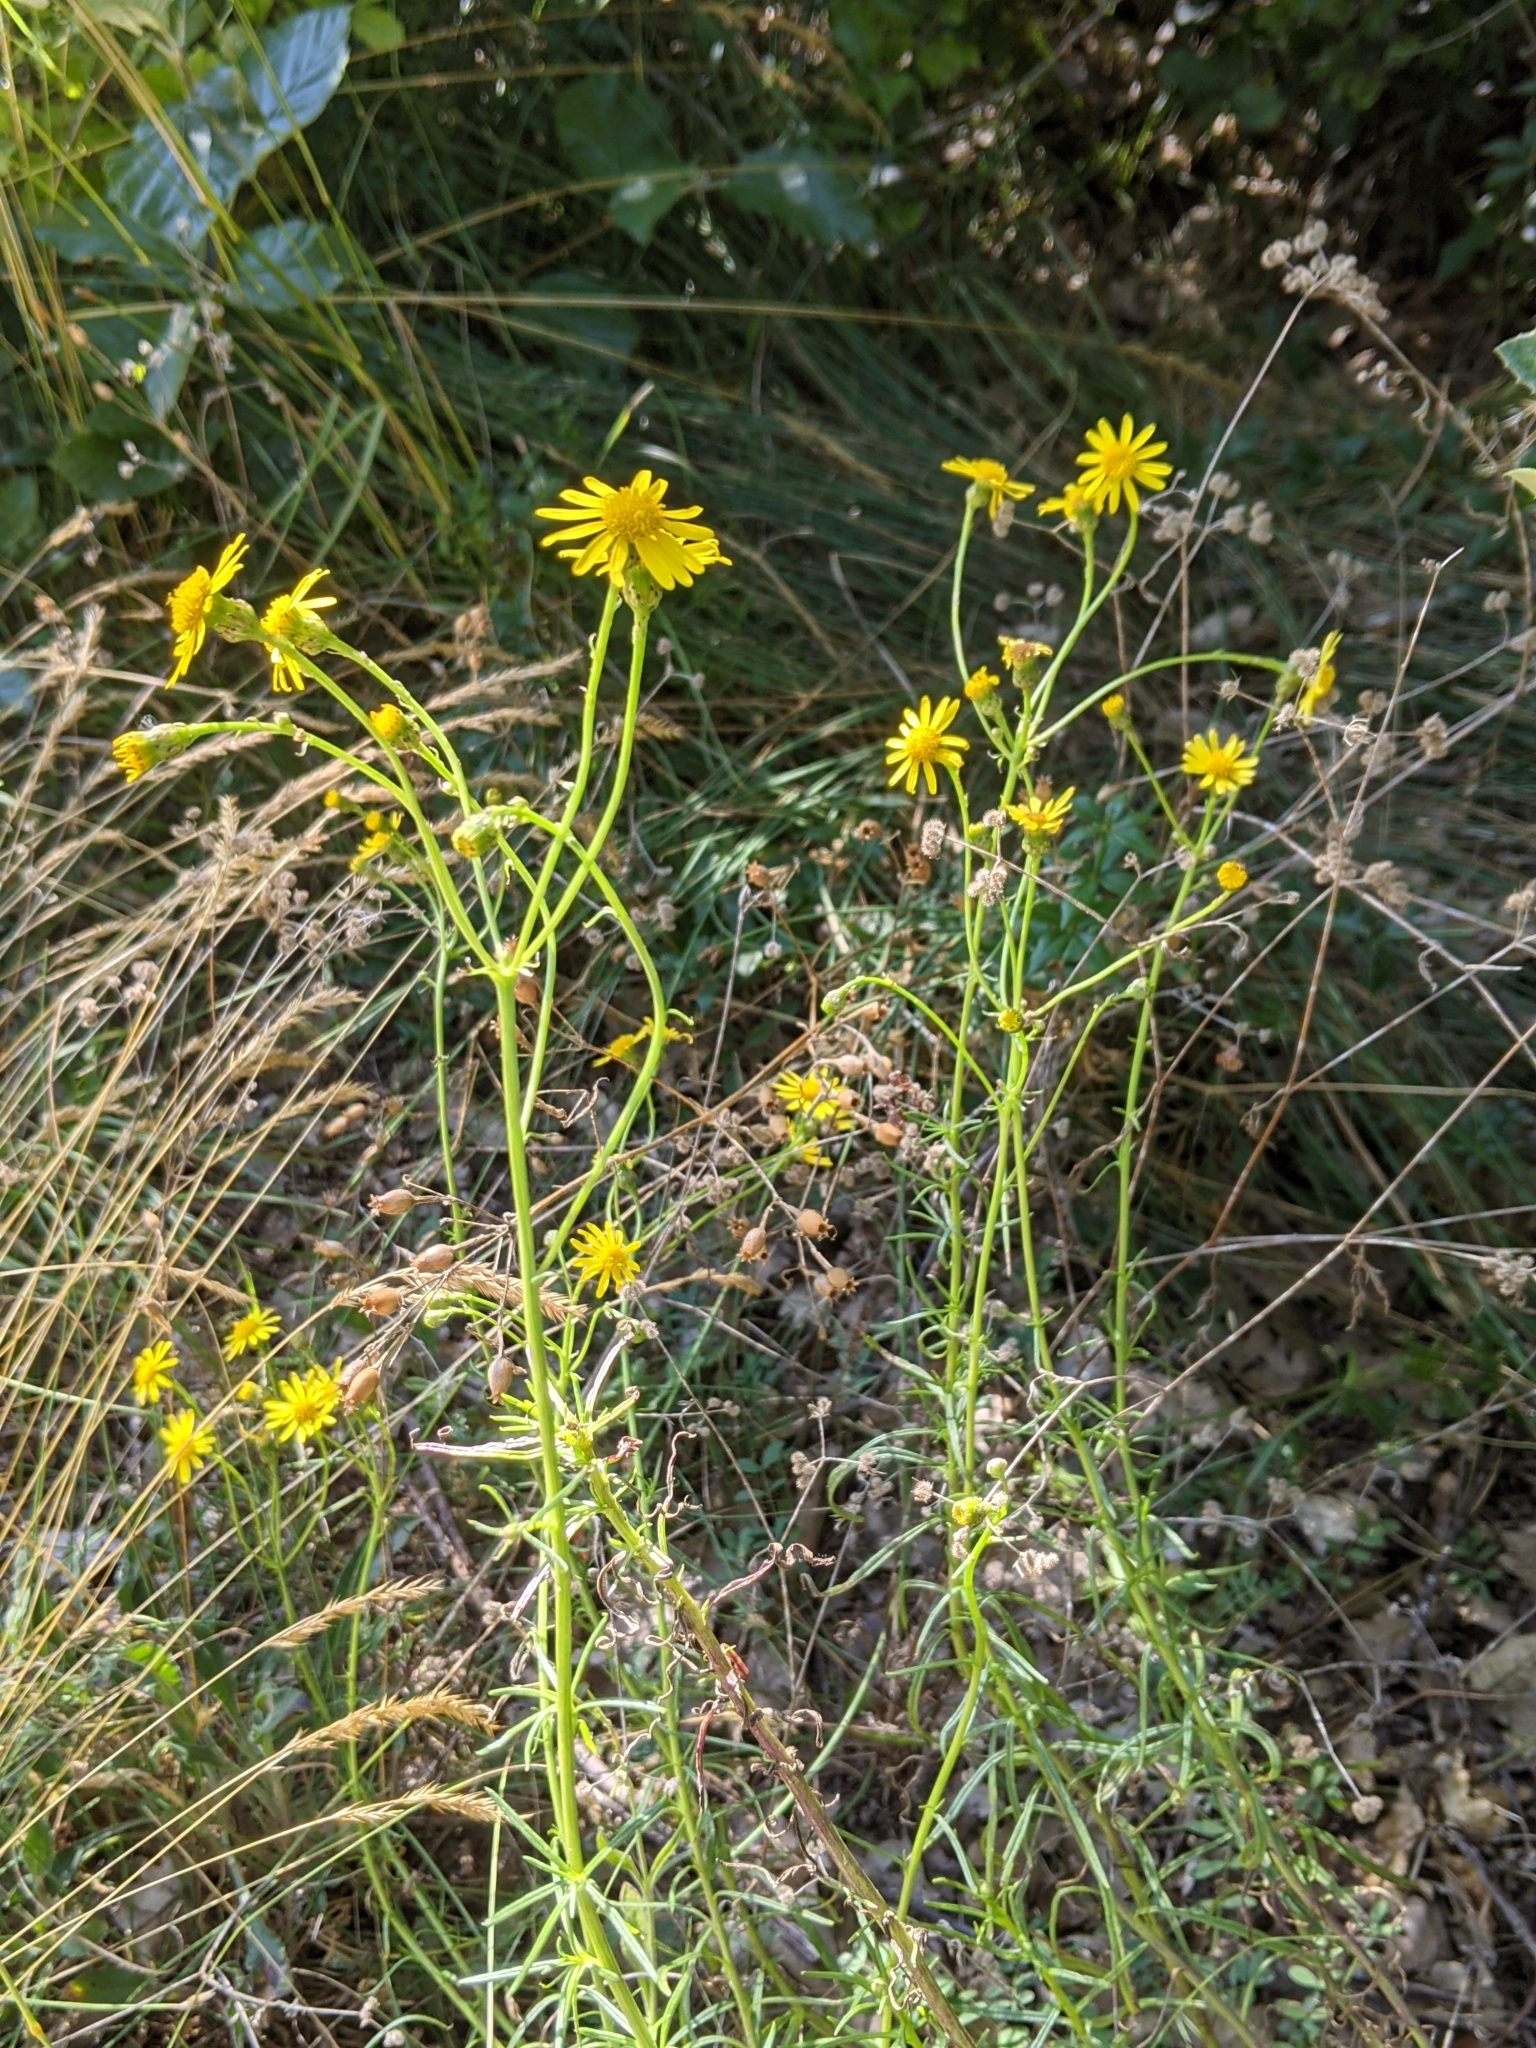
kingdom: Plantae
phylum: Tracheophyta
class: Magnoliopsida
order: Asterales
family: Asteraceae
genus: Senecio
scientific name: Senecio inaequidens
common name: Narrow-leaved ragwort
